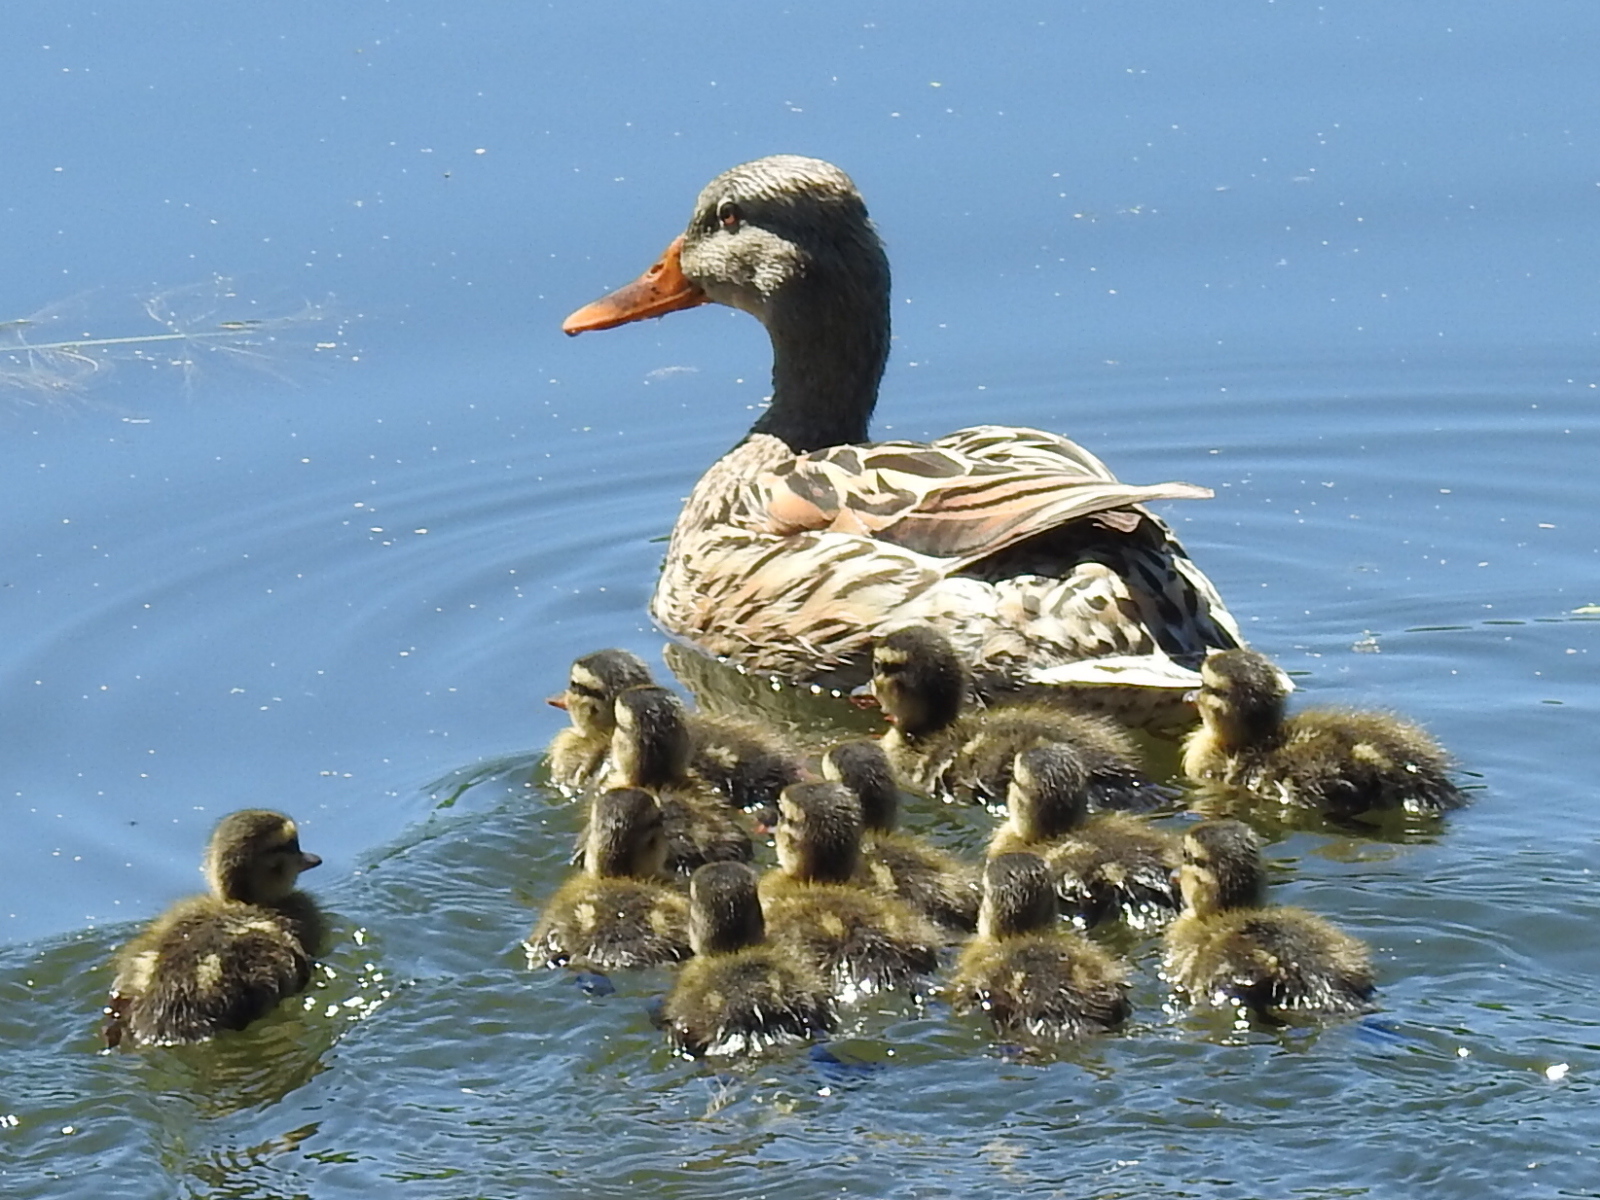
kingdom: Animalia
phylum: Chordata
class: Aves
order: Anseriformes
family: Anatidae
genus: Anas
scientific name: Anas platyrhynchos
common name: Mallard
